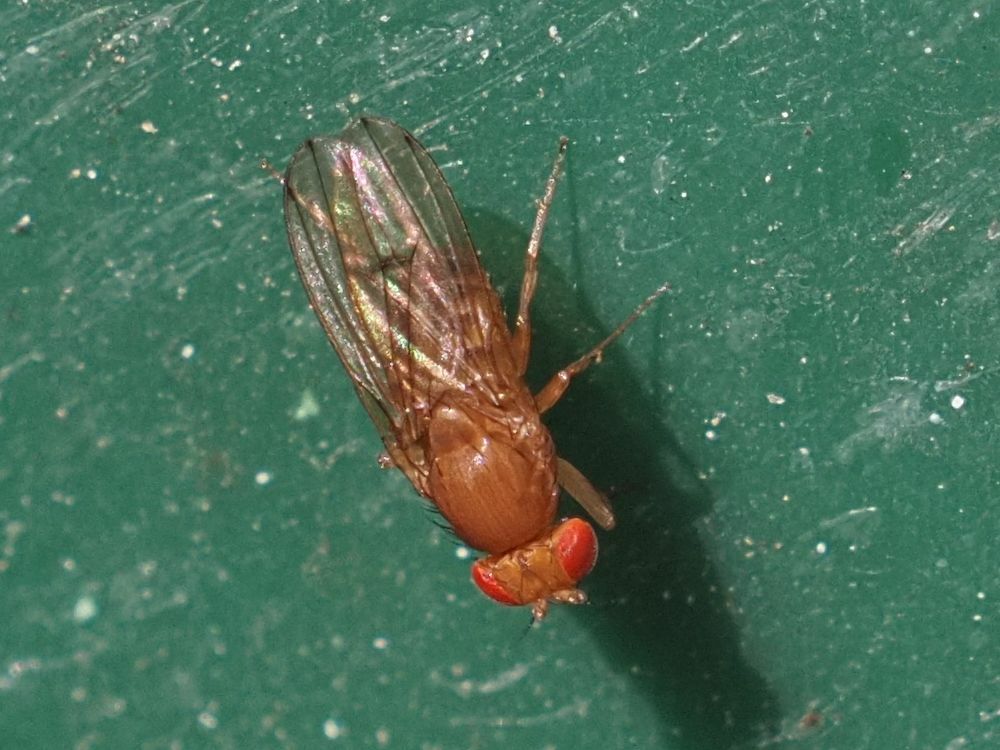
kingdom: Animalia
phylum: Arthropoda
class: Insecta
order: Diptera
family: Drosophilidae
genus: Drosophila
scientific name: Drosophila immigrans
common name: Pomace fly
